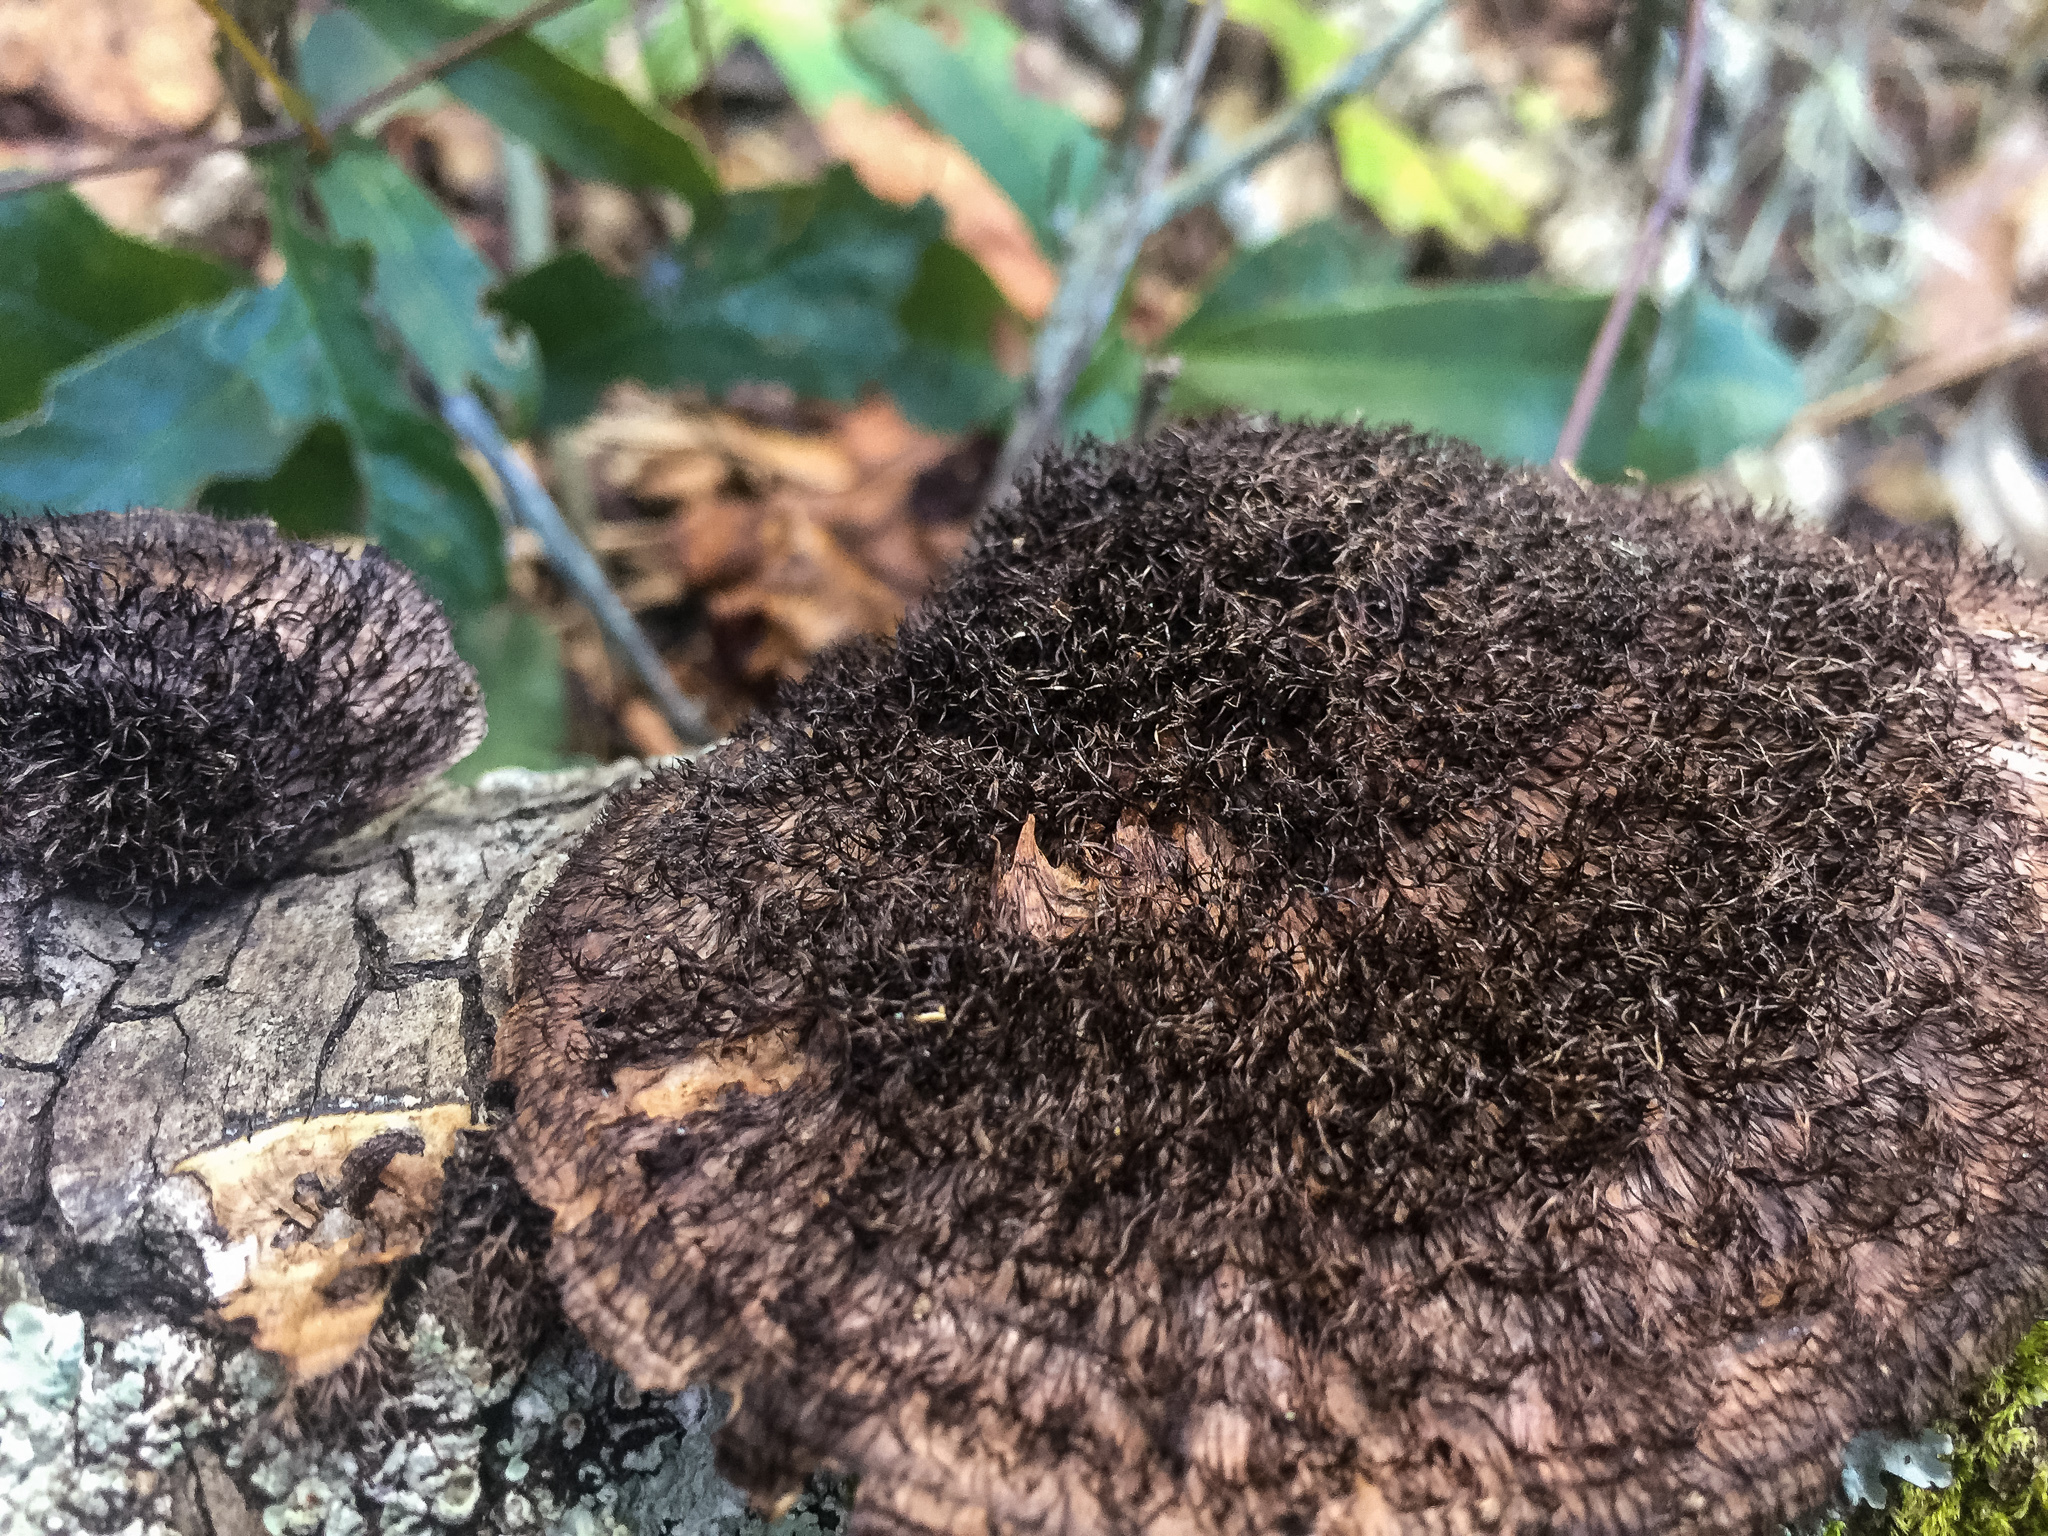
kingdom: Fungi
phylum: Basidiomycota
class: Agaricomycetes
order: Polyporales
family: Cerrenaceae
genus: Cerrena
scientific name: Cerrena hydnoides
